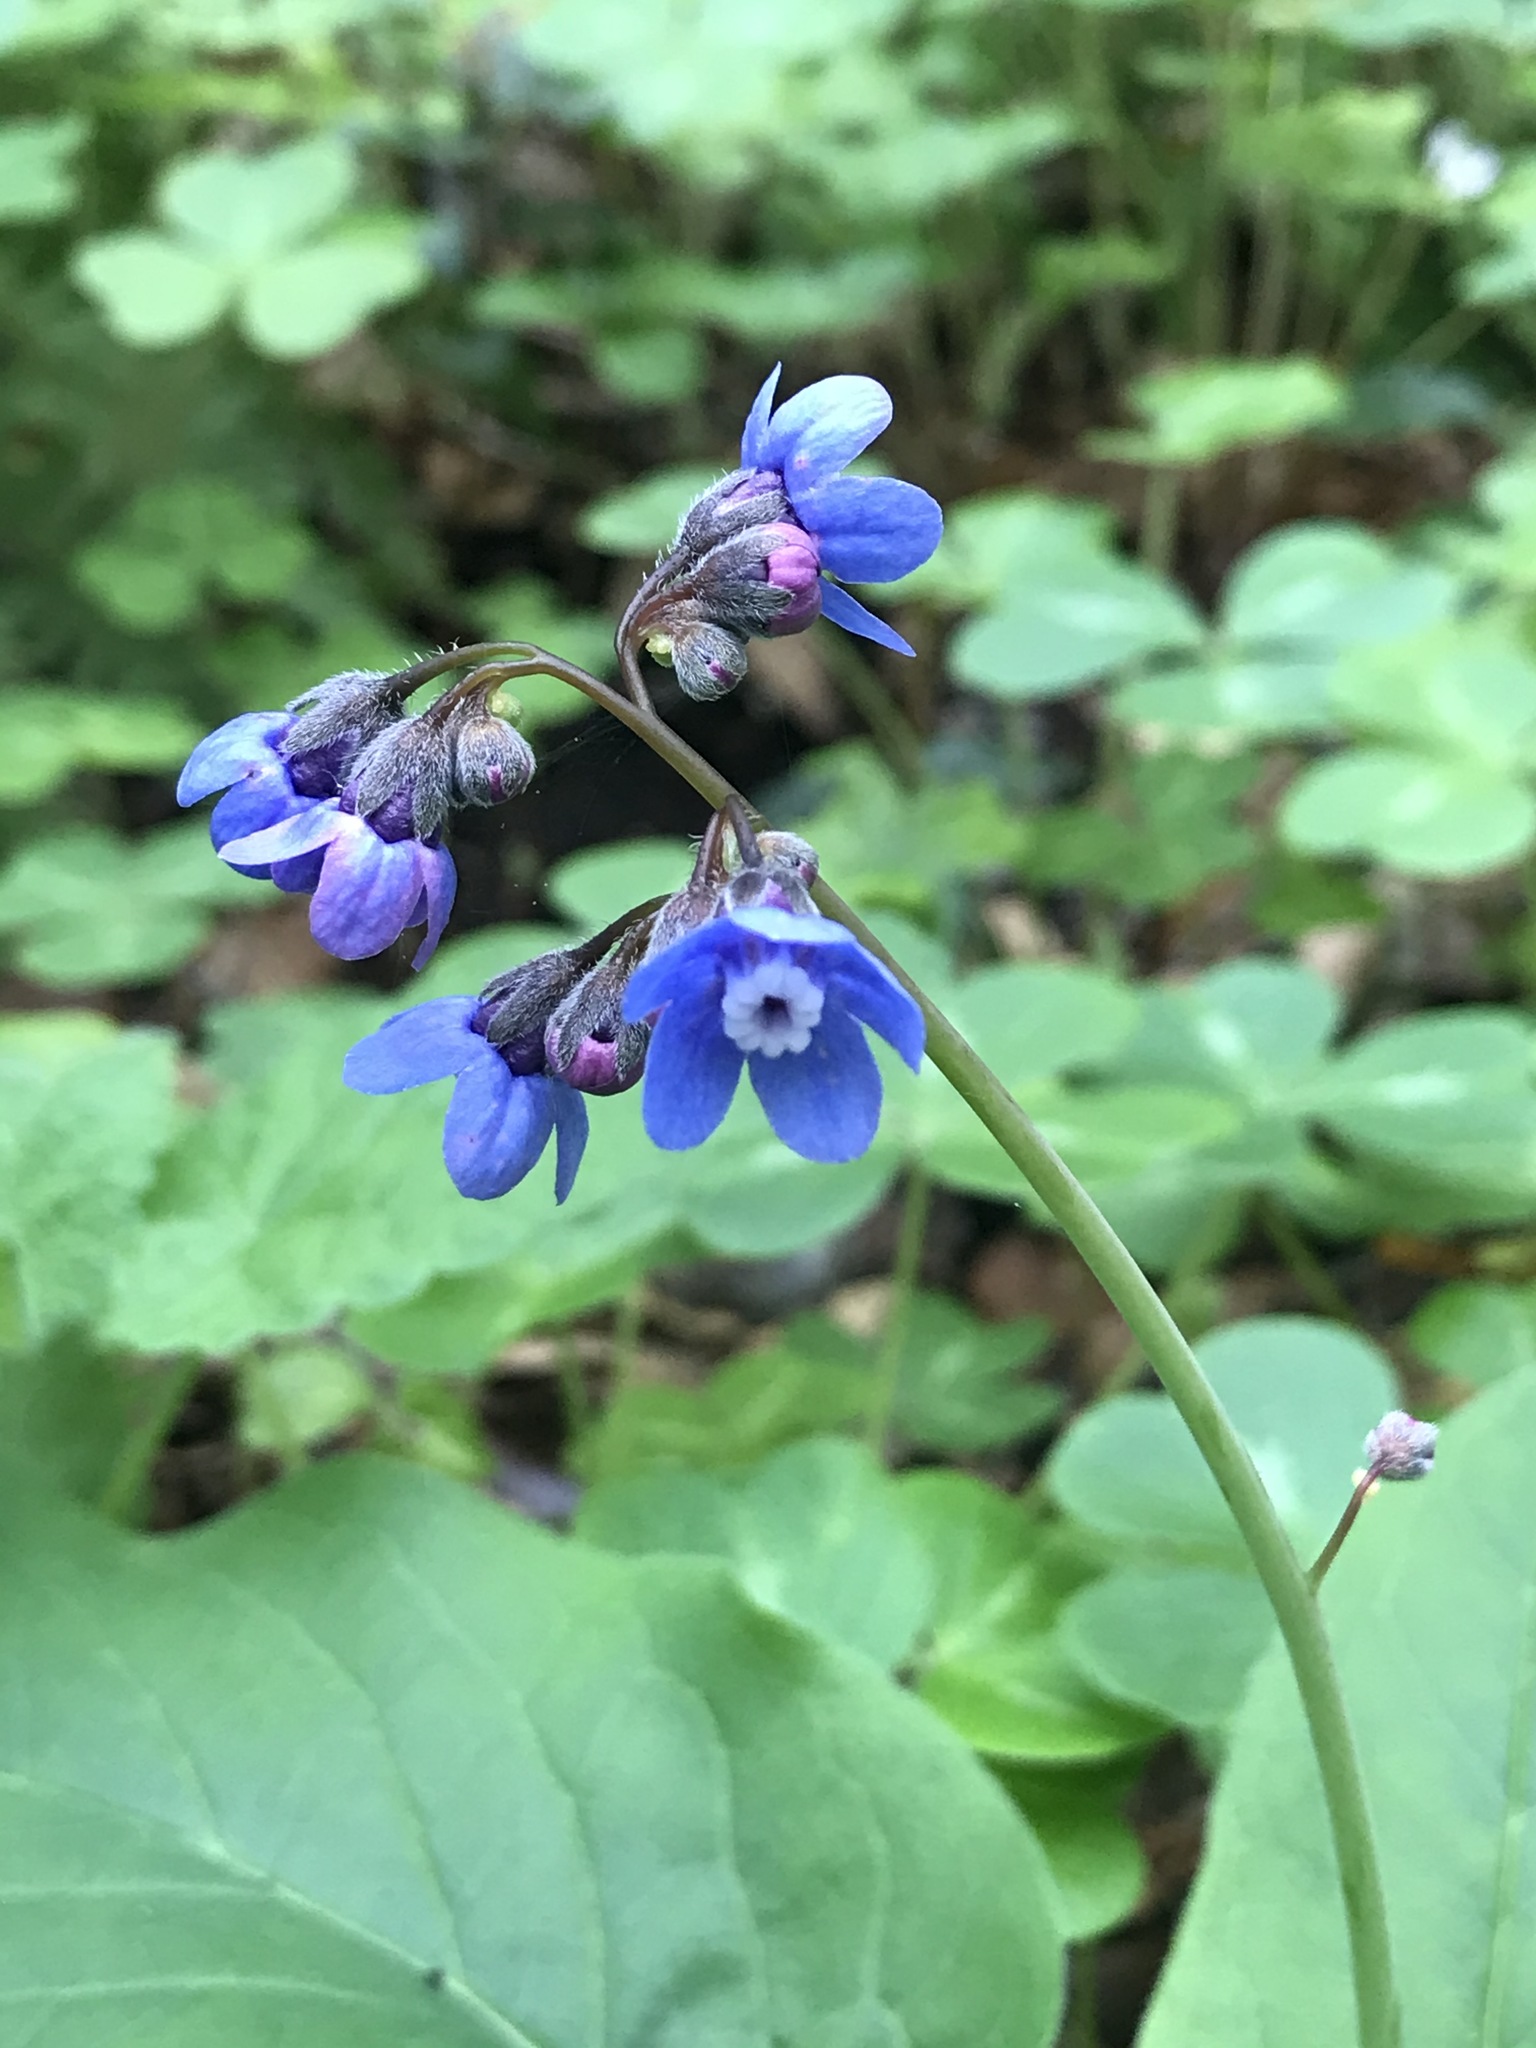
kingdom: Plantae
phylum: Tracheophyta
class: Magnoliopsida
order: Boraginales
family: Boraginaceae
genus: Adelinia
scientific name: Adelinia grande
